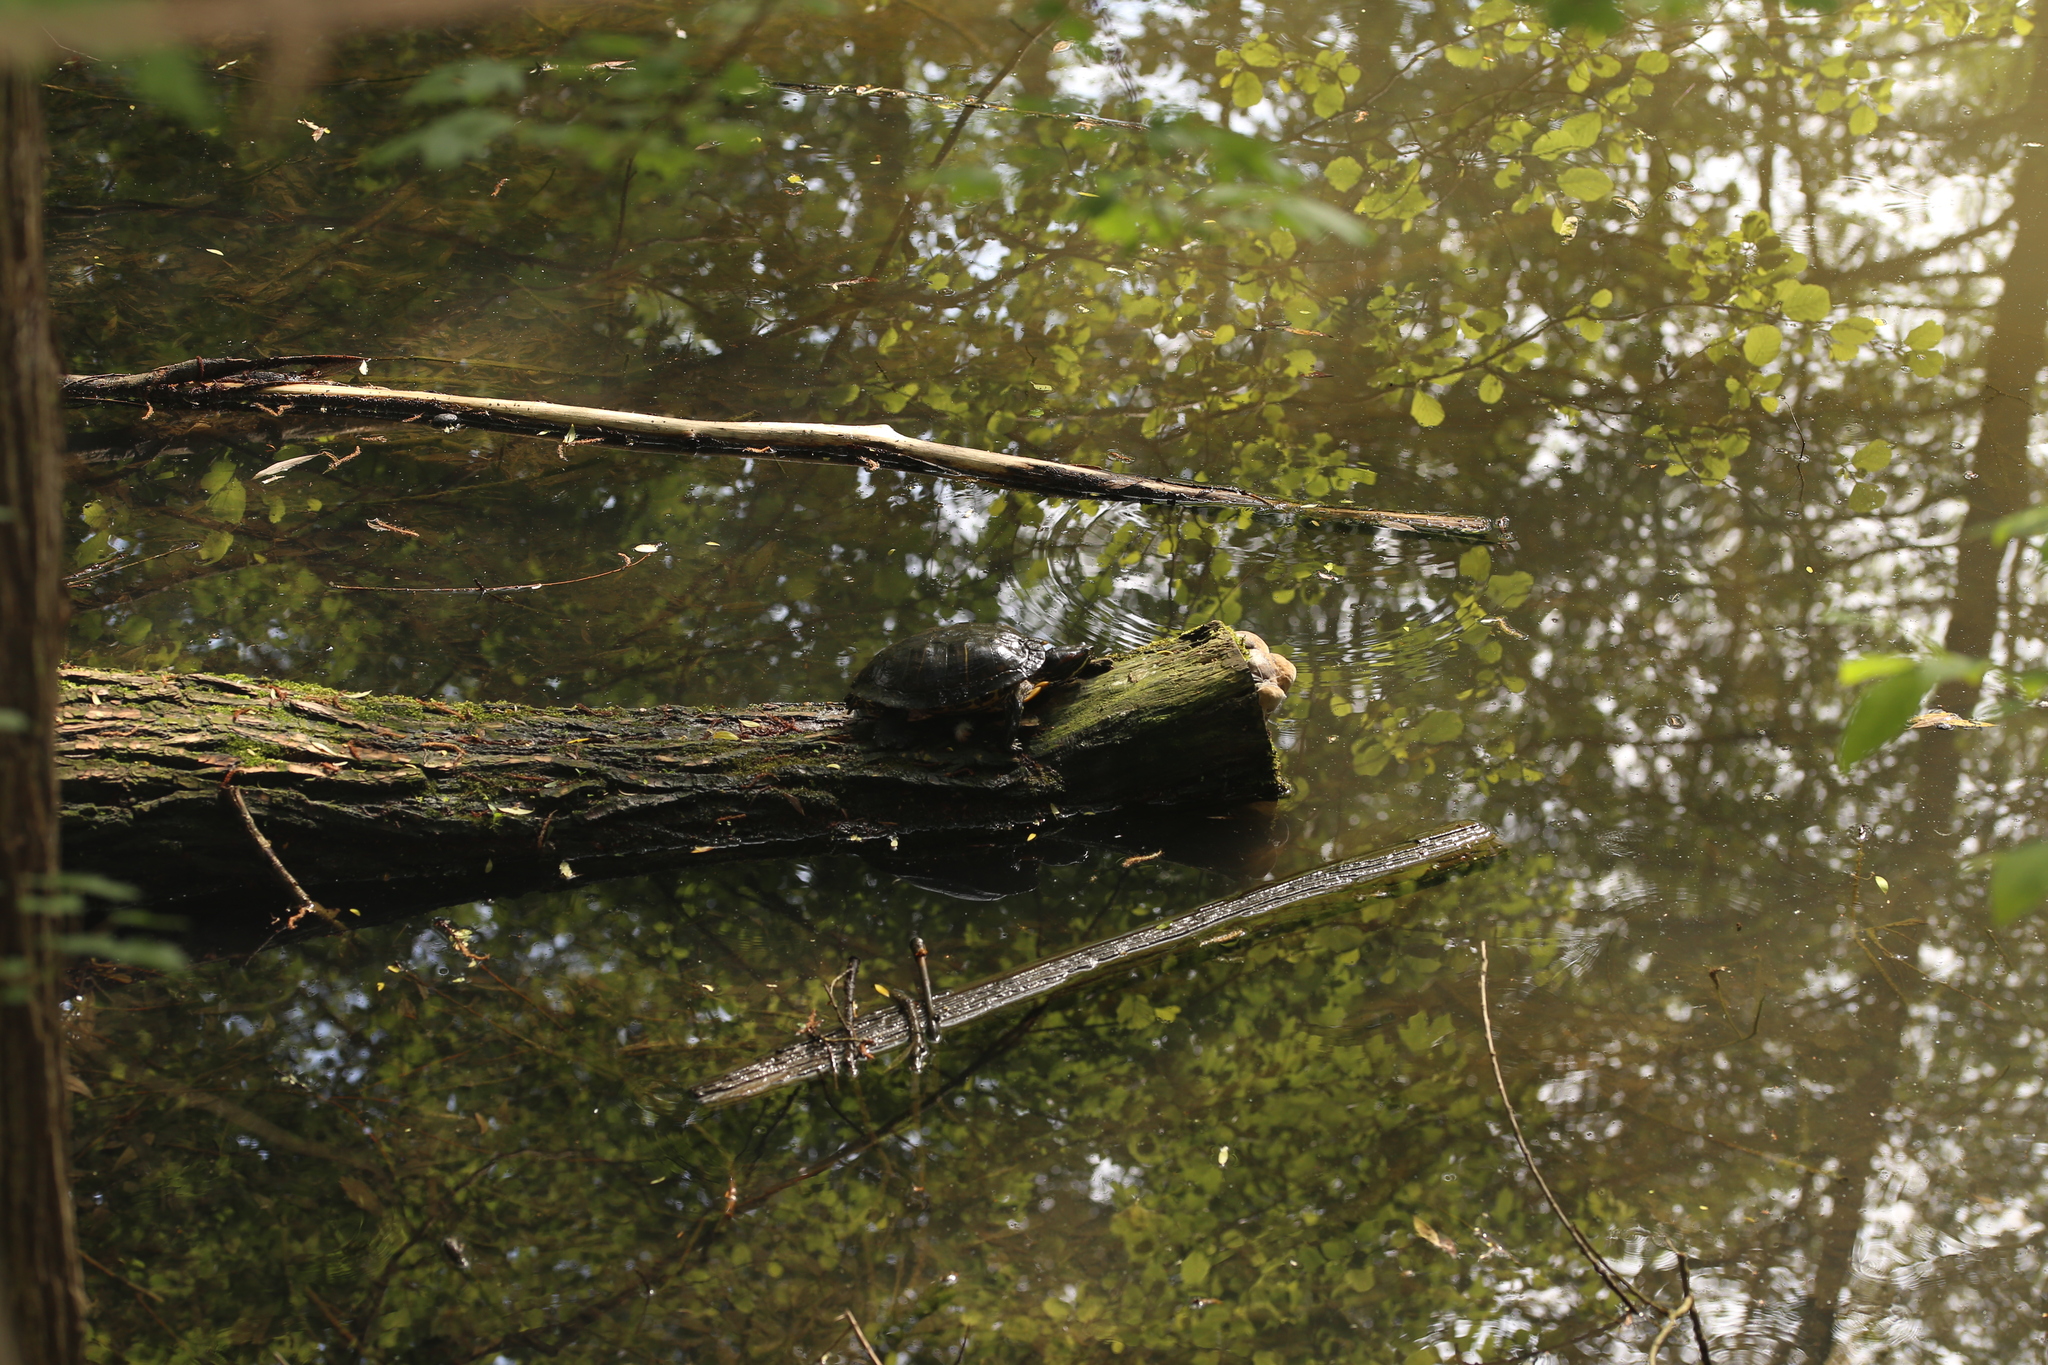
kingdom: Animalia
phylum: Chordata
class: Testudines
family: Emydidae
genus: Trachemys
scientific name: Trachemys scripta
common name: Slider
